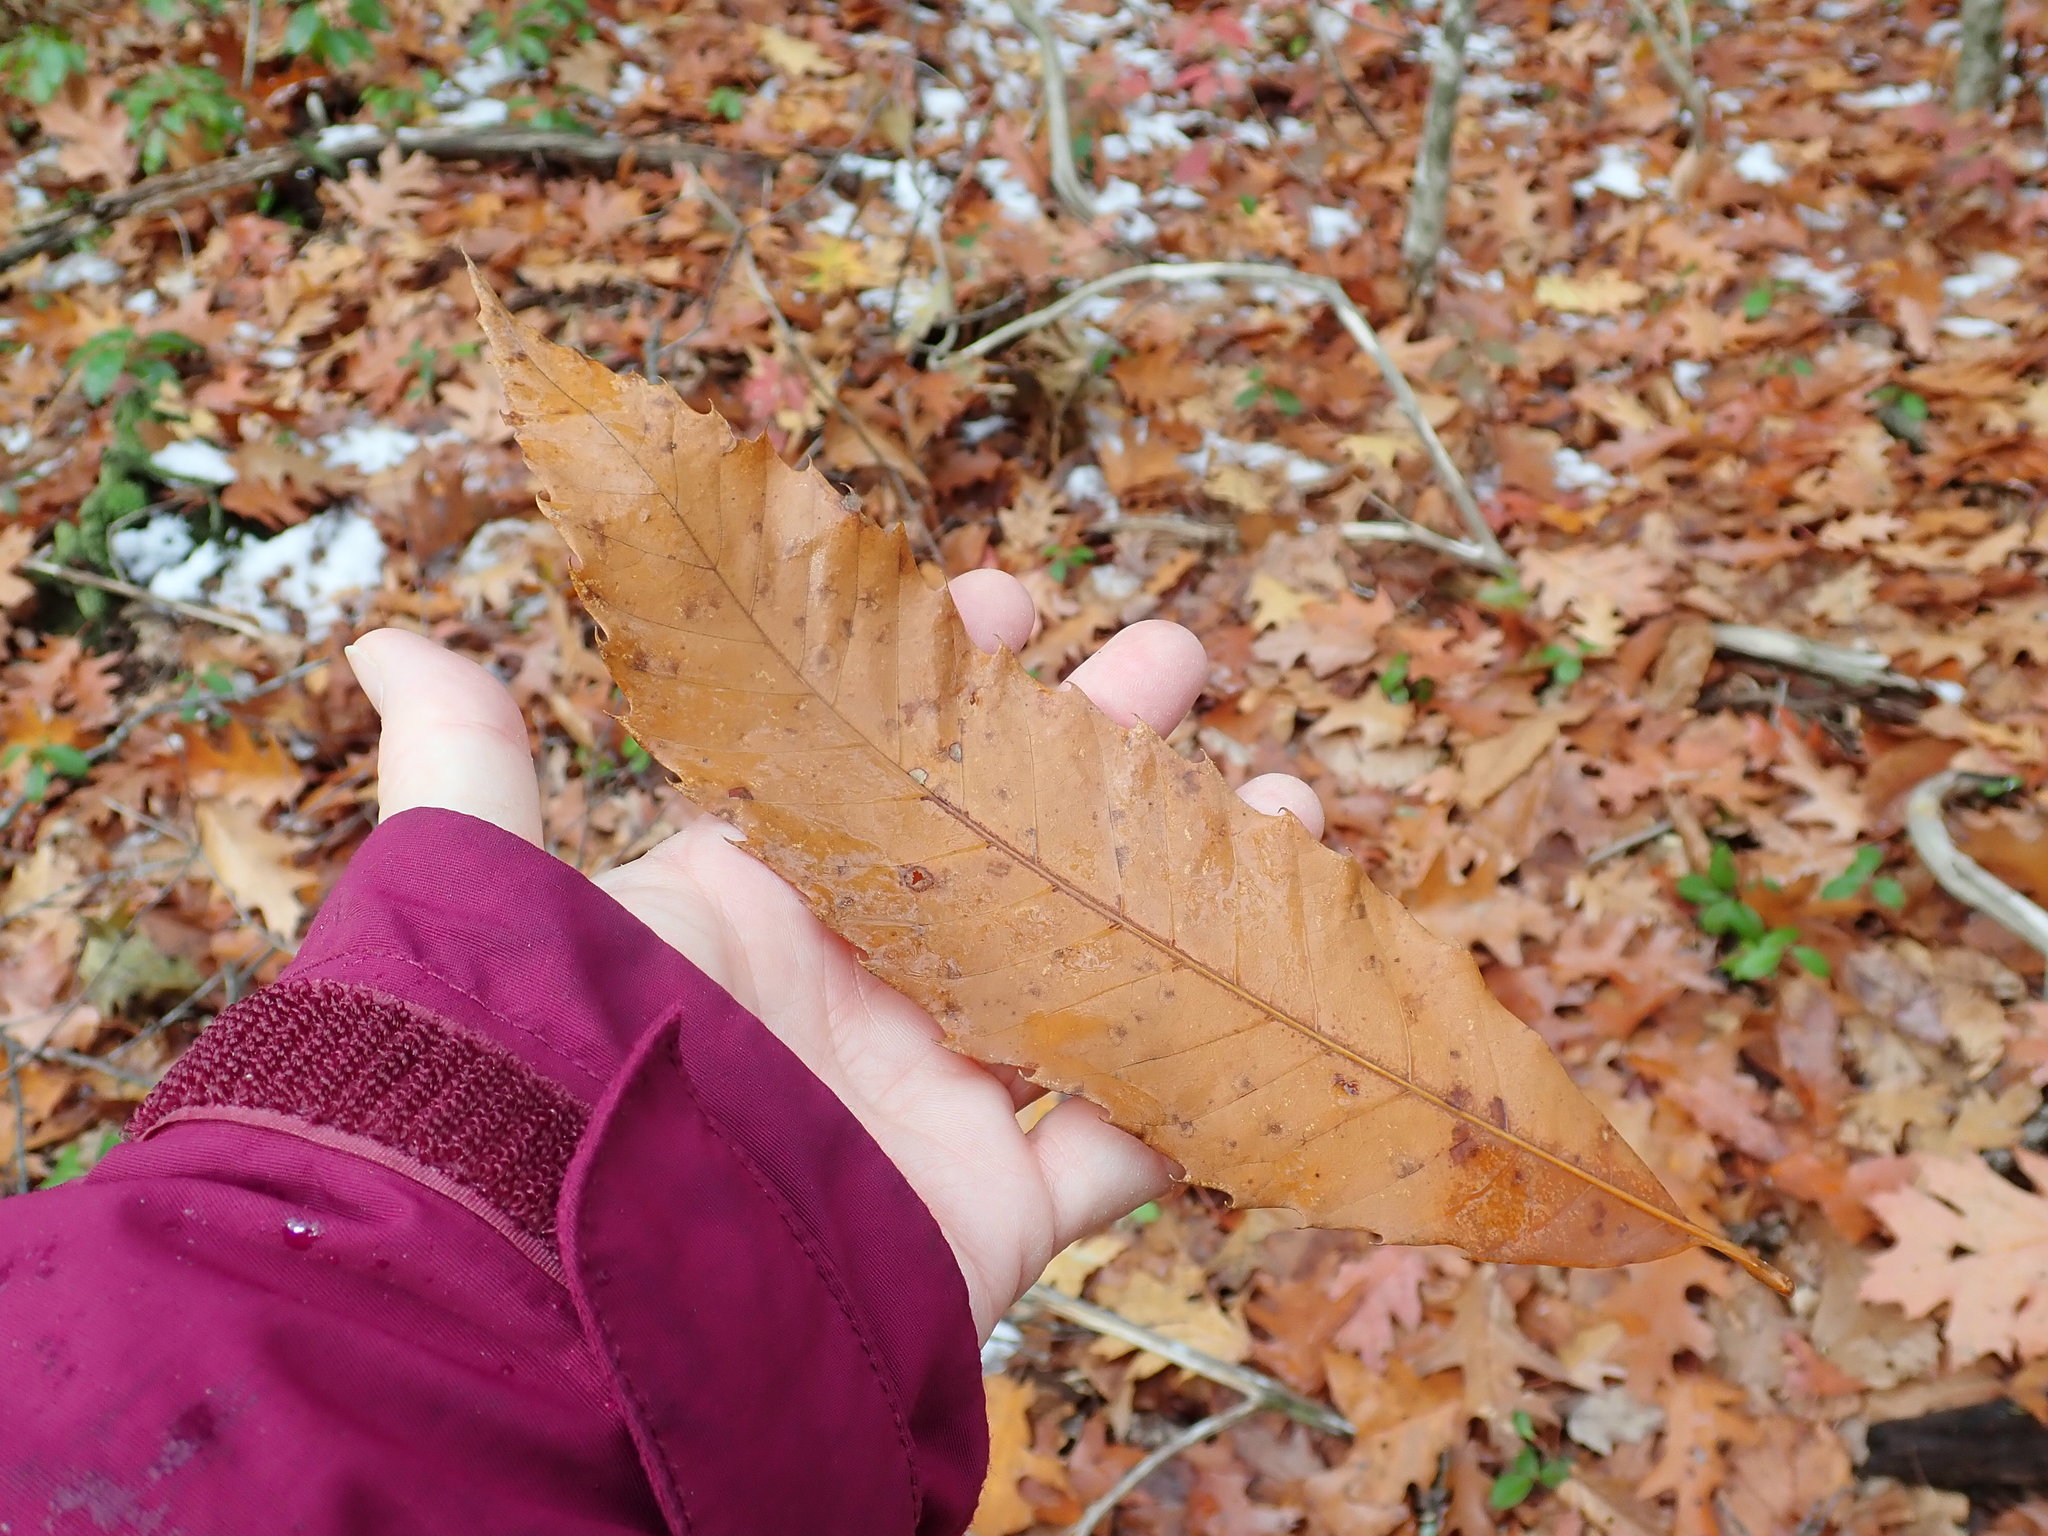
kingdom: Plantae
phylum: Tracheophyta
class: Magnoliopsida
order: Fagales
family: Fagaceae
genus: Castanea
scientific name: Castanea dentata
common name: American chestnut
